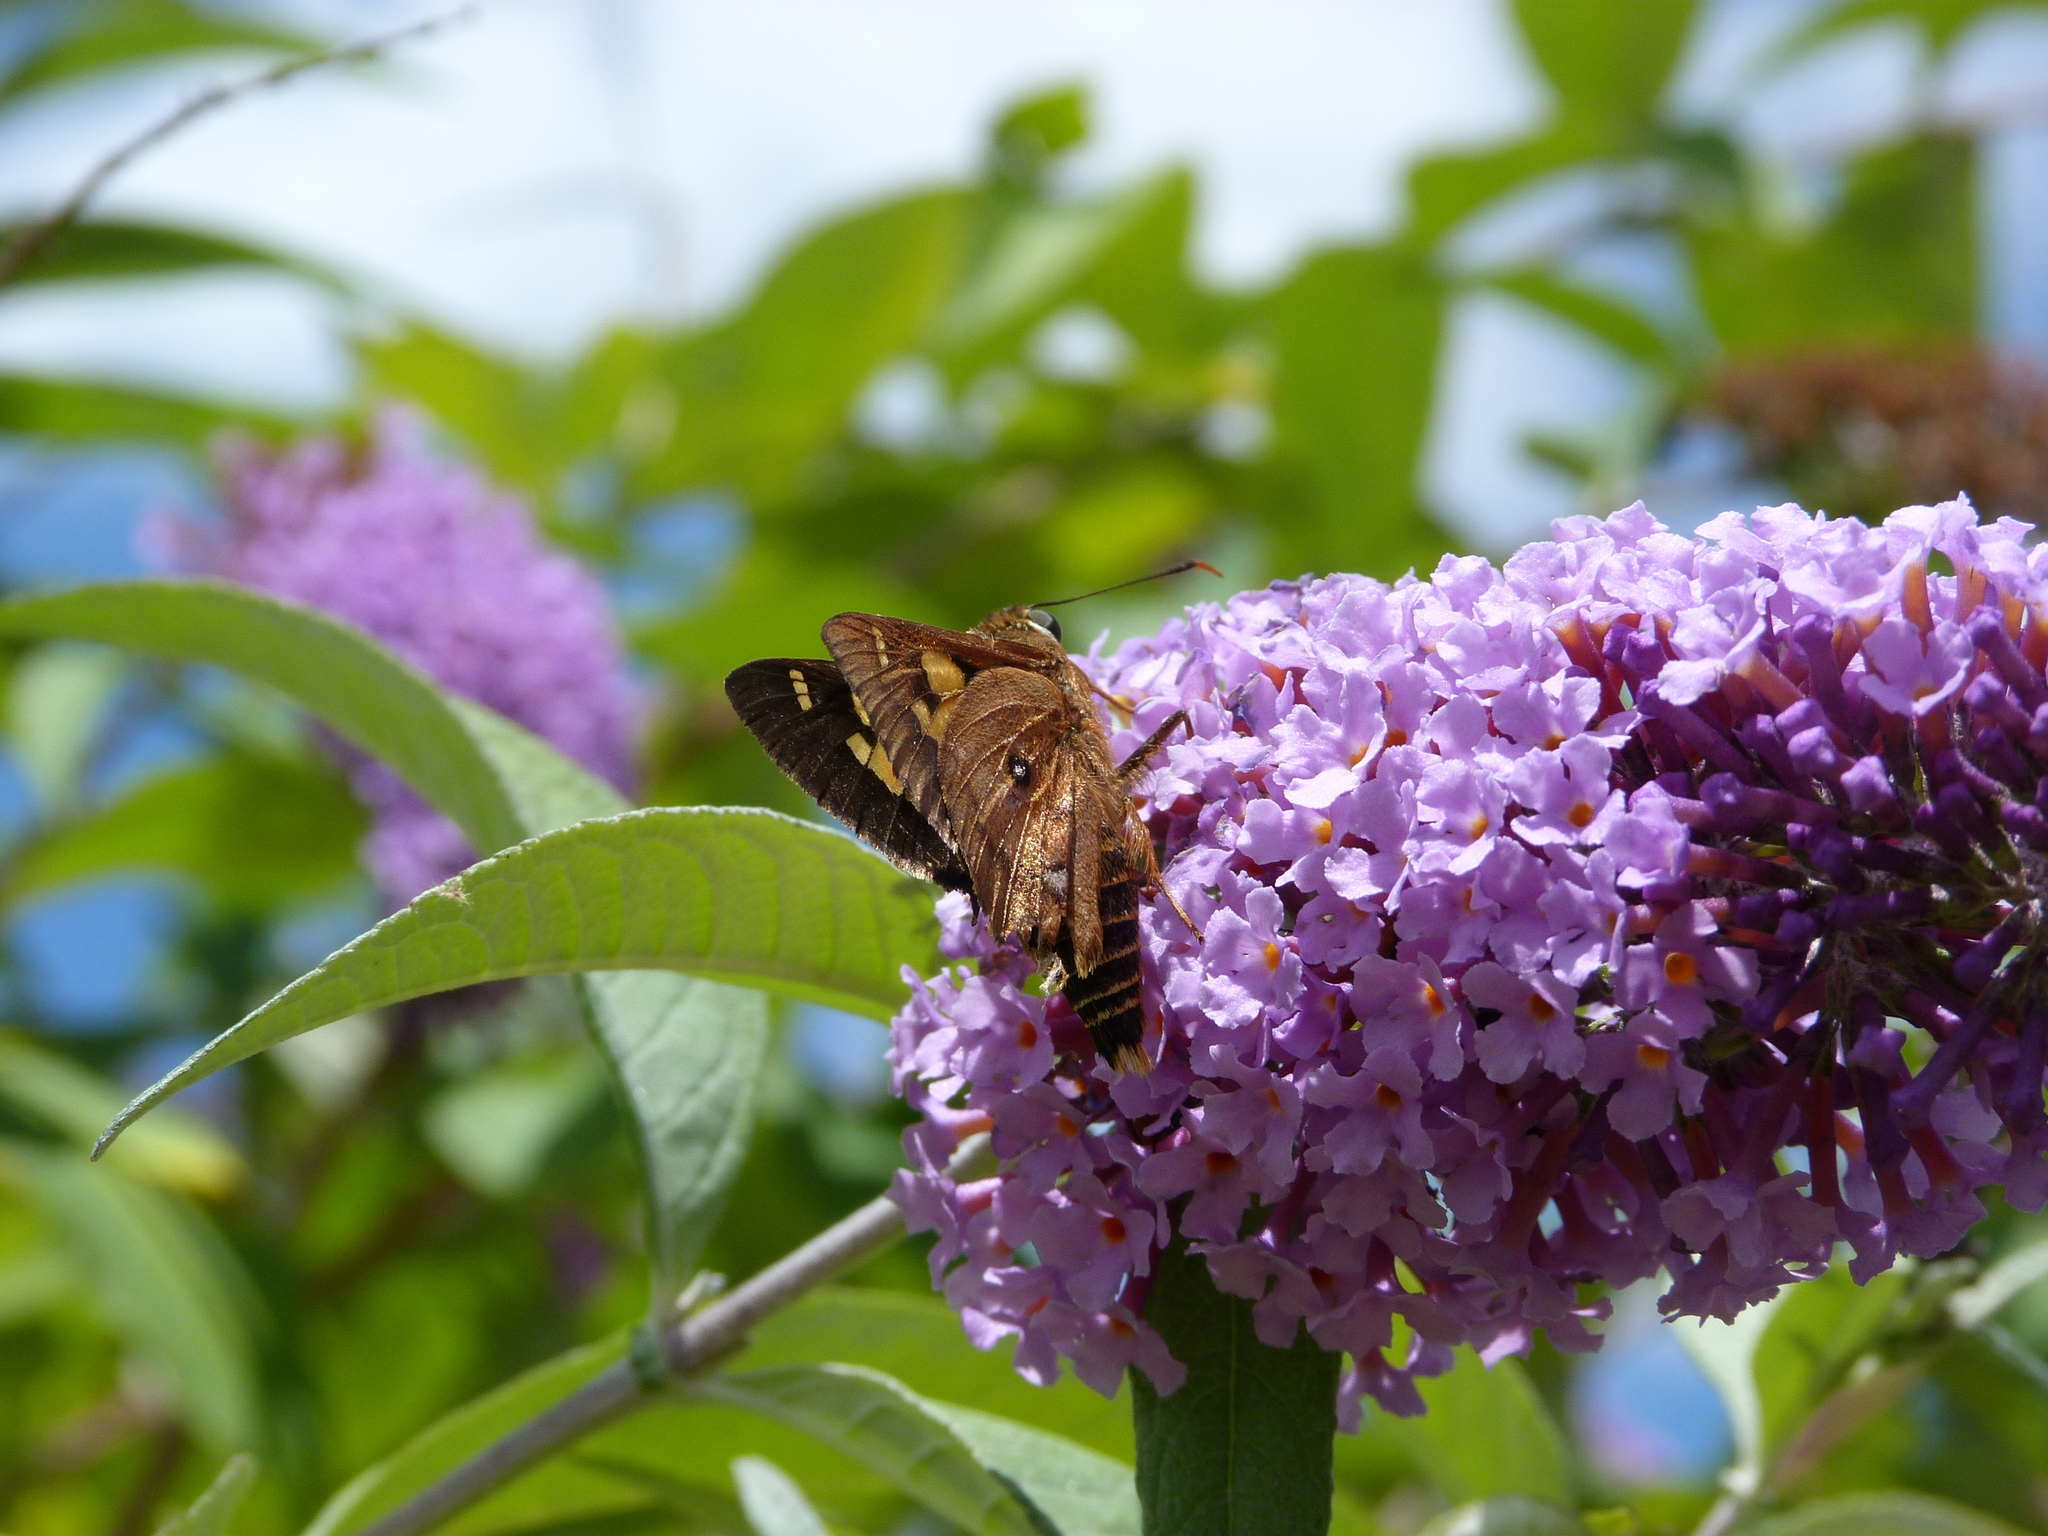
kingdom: Animalia
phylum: Arthropoda
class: Insecta
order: Lepidoptera
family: Hesperiidae
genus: Trapezites
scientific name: Trapezites symmomus
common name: Splendid ochre
